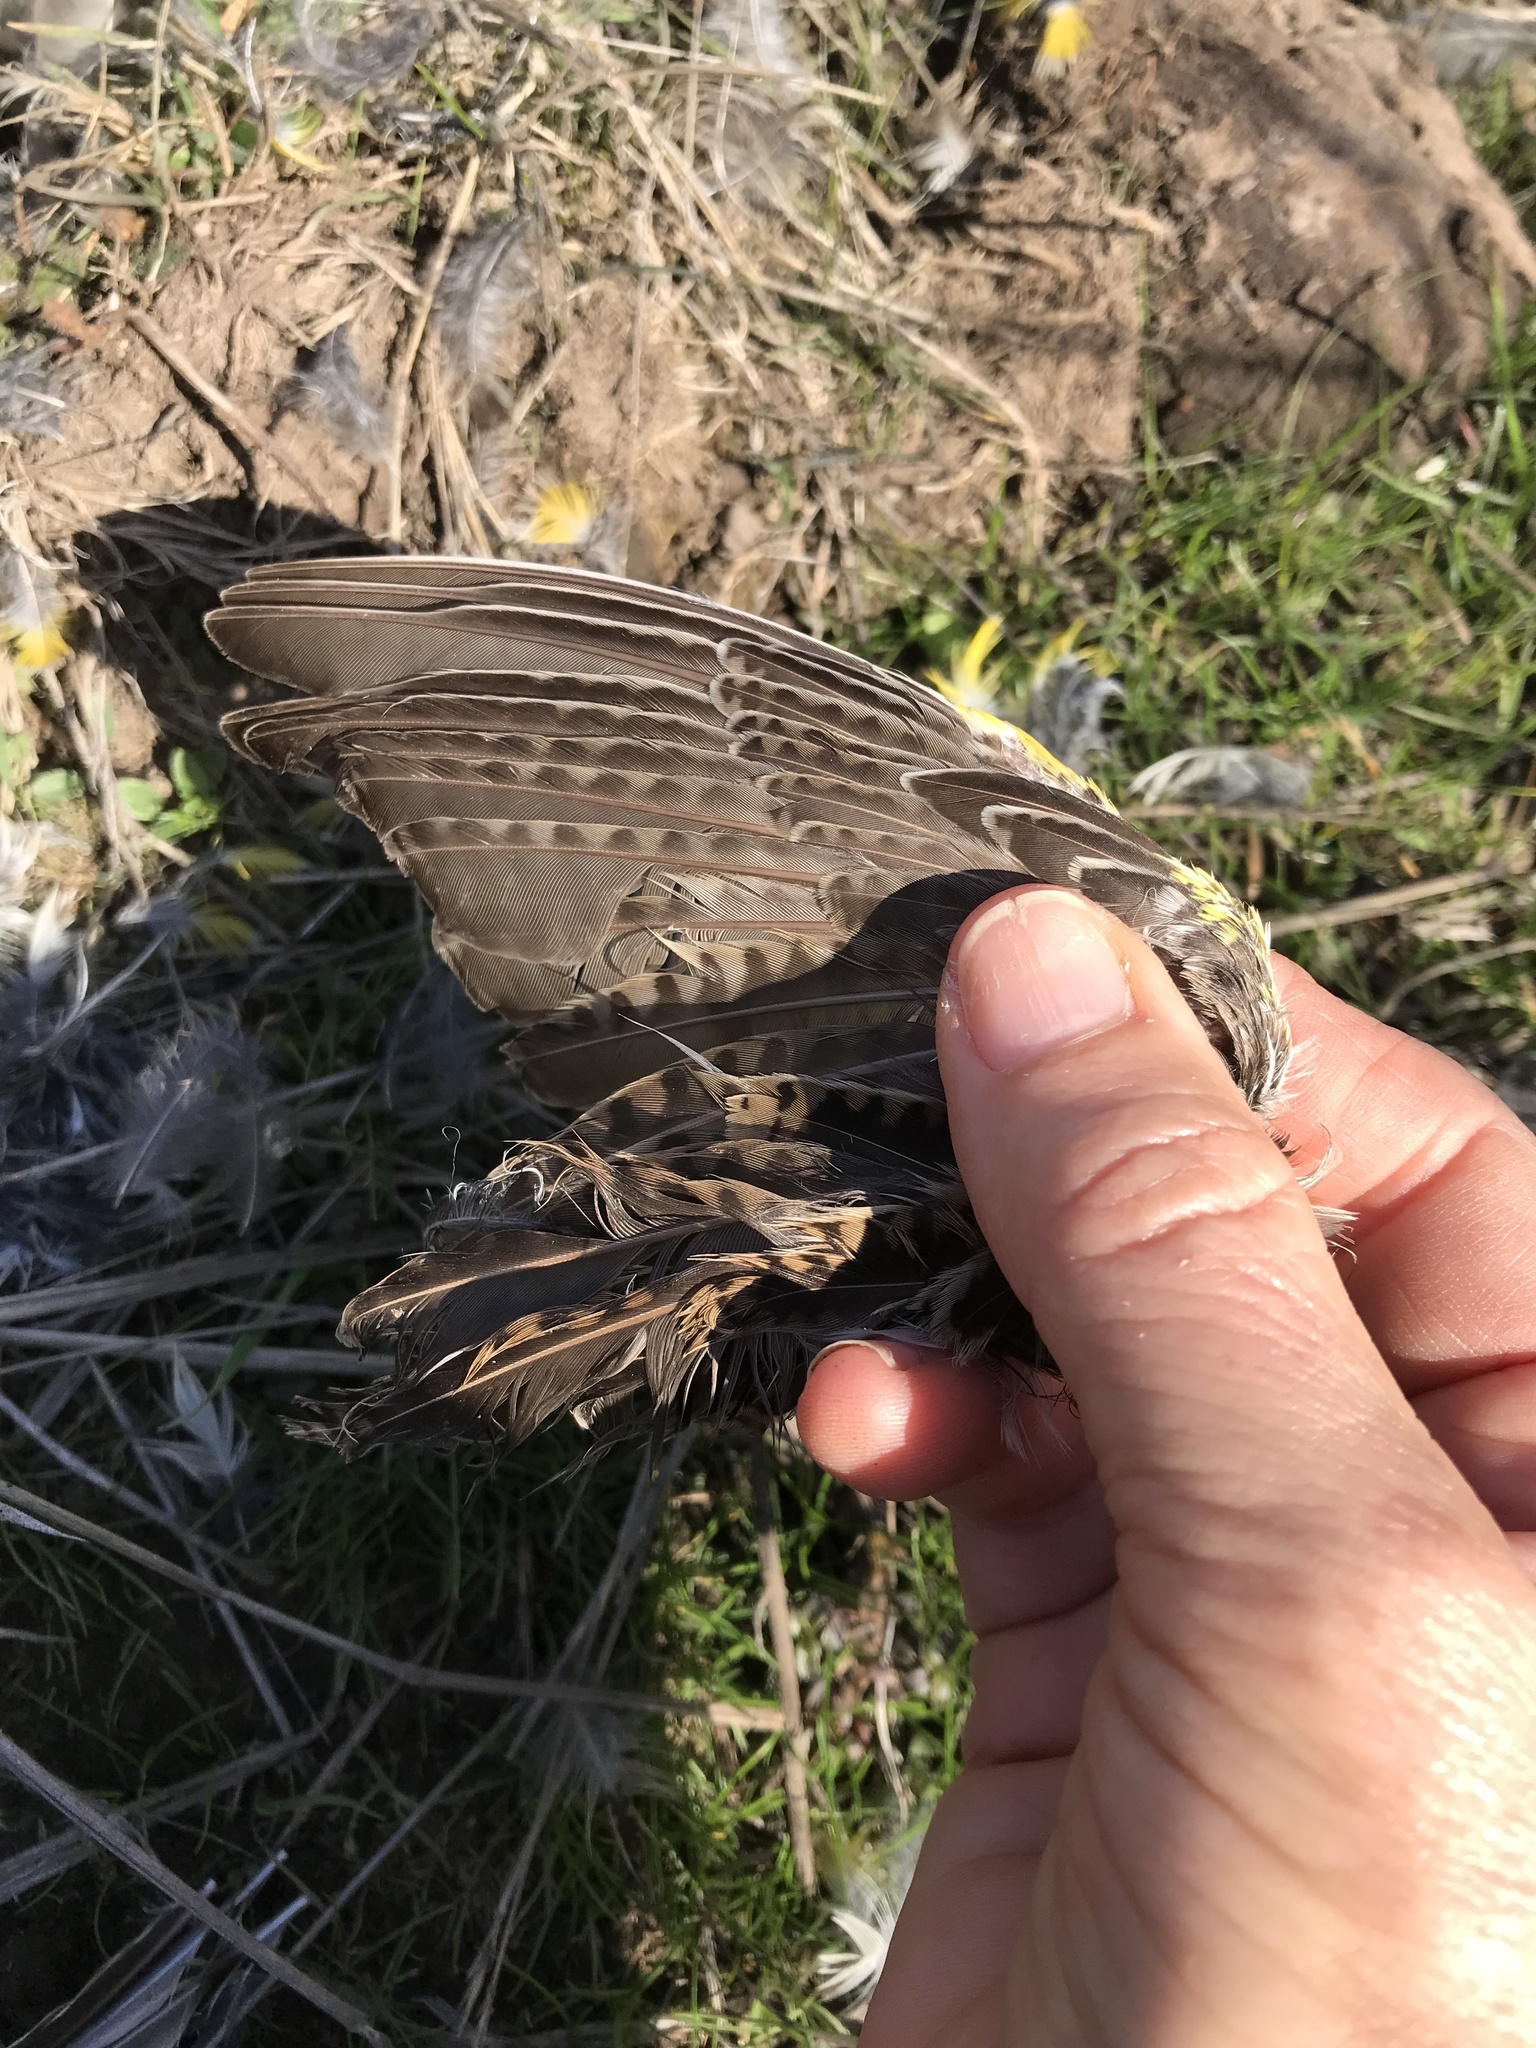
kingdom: Animalia
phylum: Chordata
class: Aves
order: Passeriformes
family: Icteridae
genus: Sturnella
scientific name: Sturnella neglecta
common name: Western meadowlark
